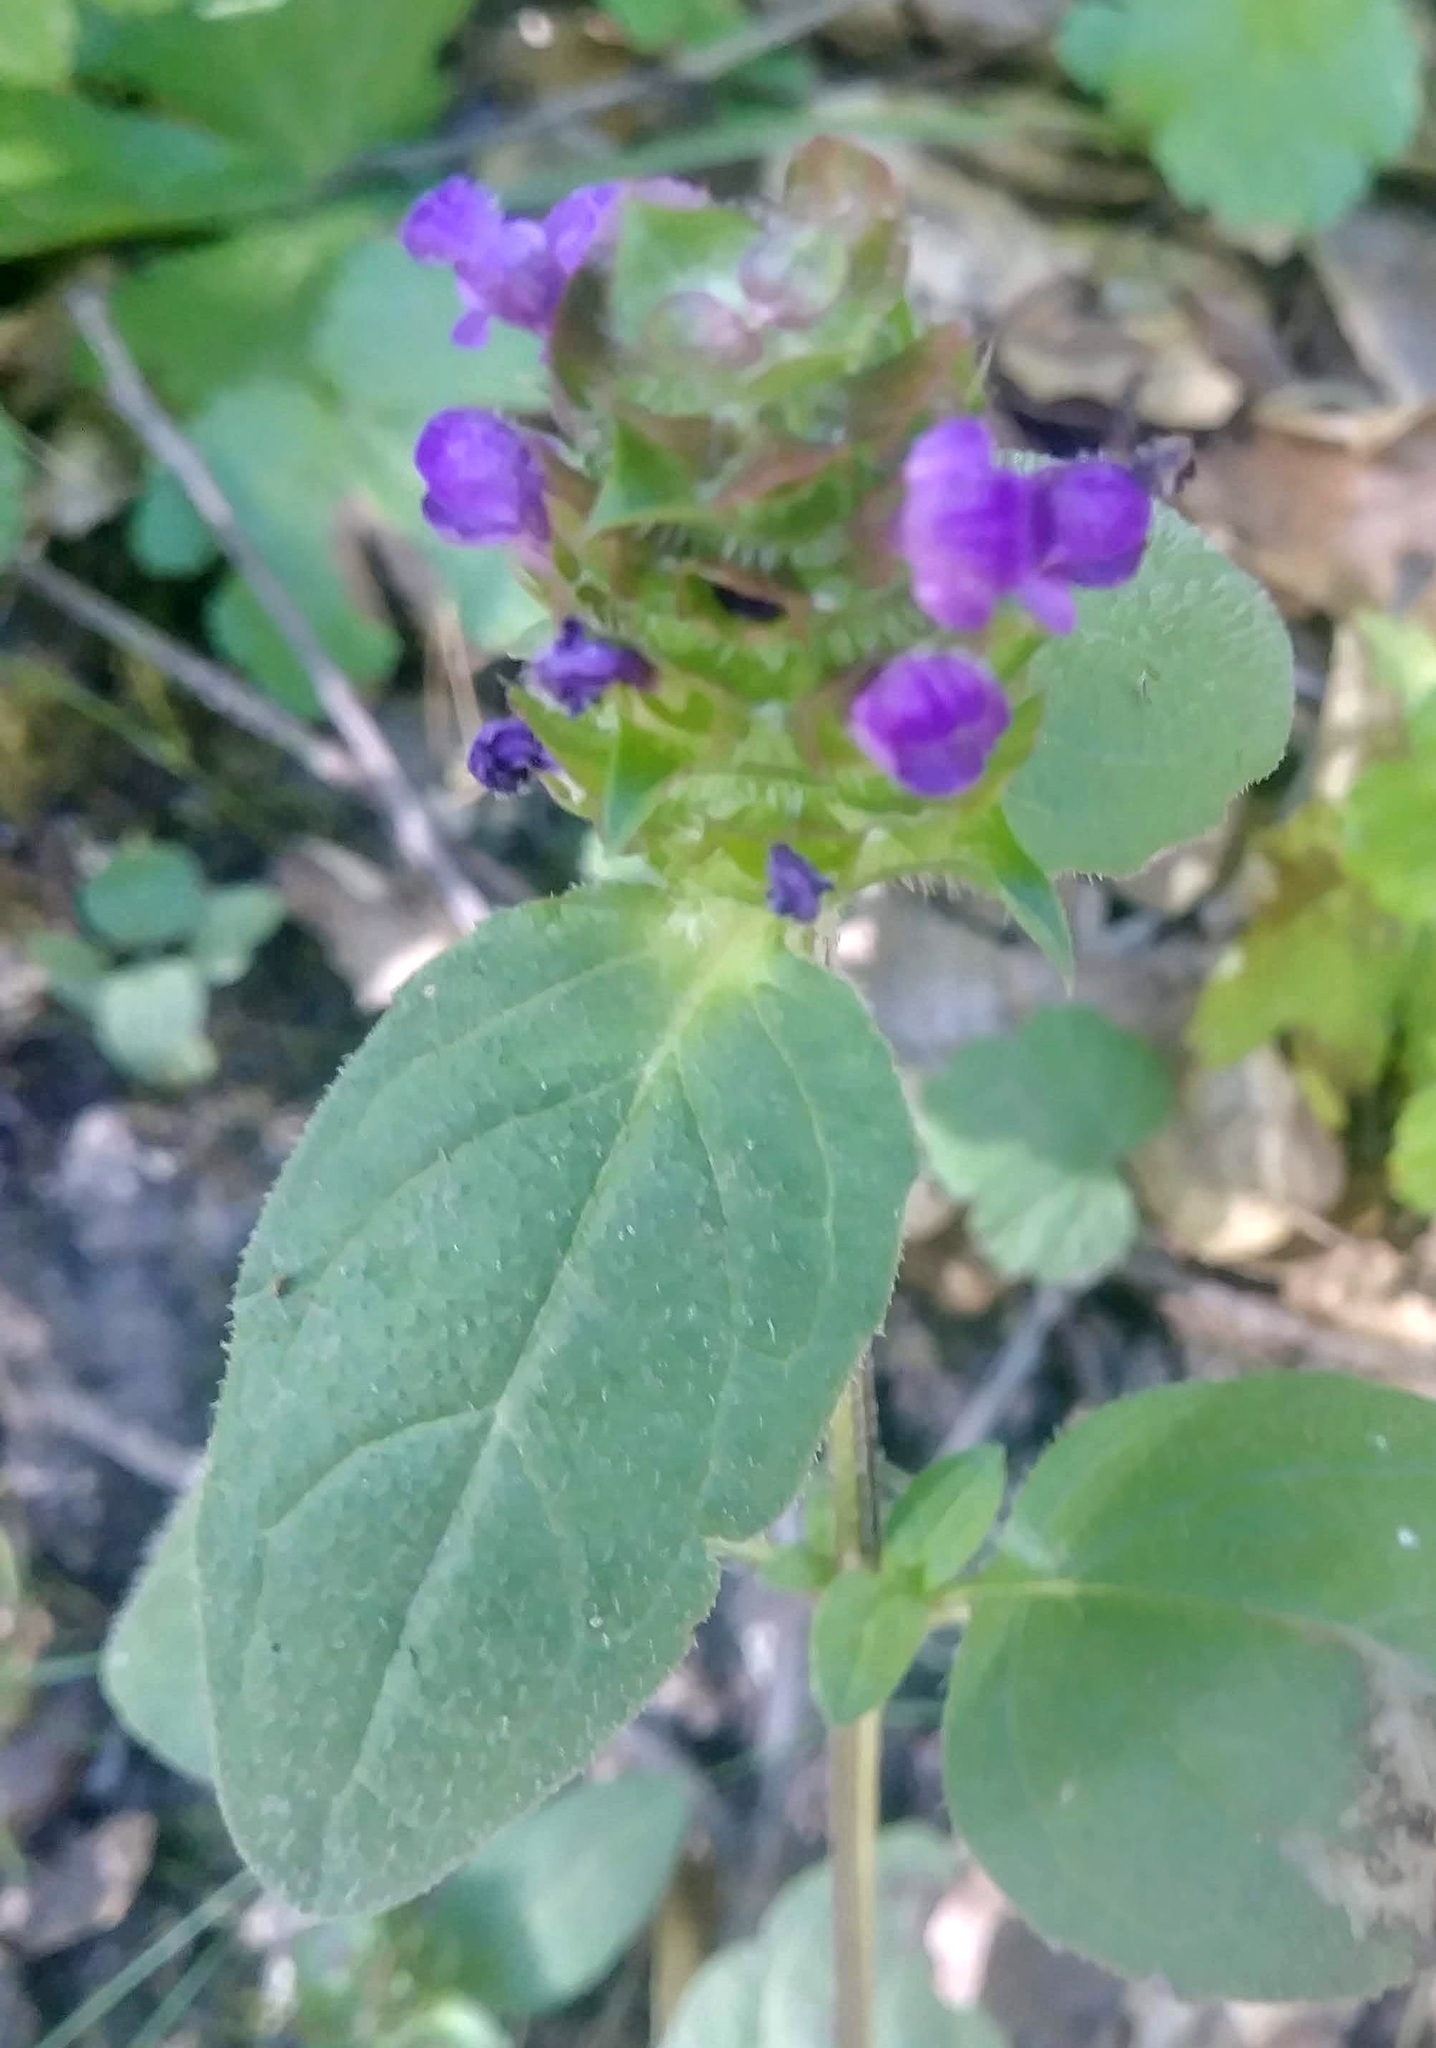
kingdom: Plantae
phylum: Tracheophyta
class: Magnoliopsida
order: Lamiales
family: Lamiaceae
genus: Prunella
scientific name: Prunella vulgaris
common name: Heal-all
